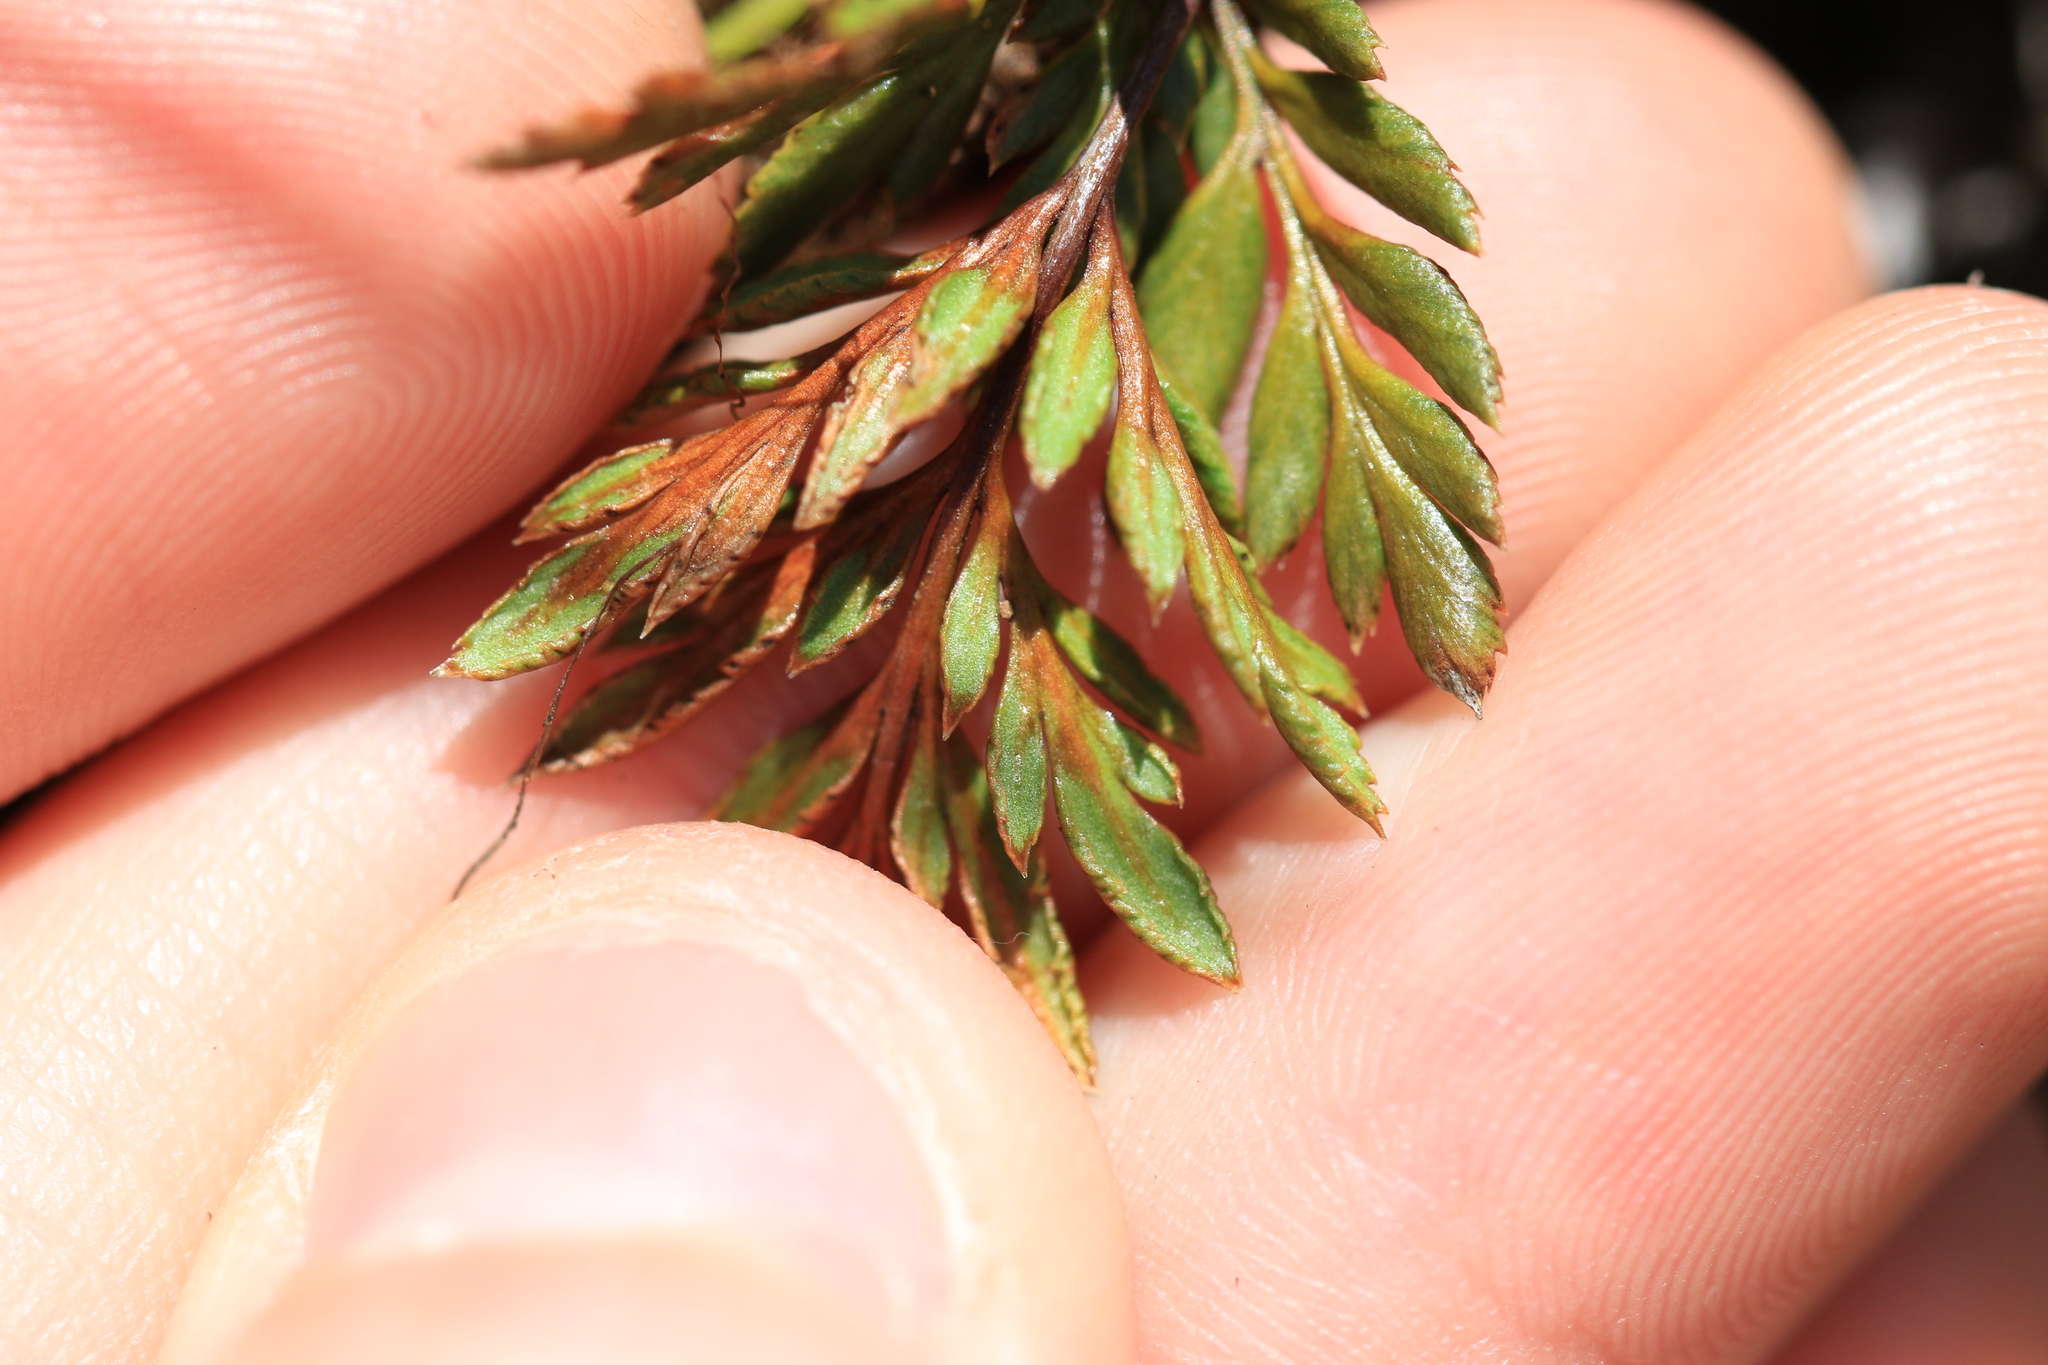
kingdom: Plantae
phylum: Tracheophyta
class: Polypodiopsida
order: Polypodiales
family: Pteridaceae
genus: Aspidotis
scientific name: Aspidotis densa
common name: Indian's dream
